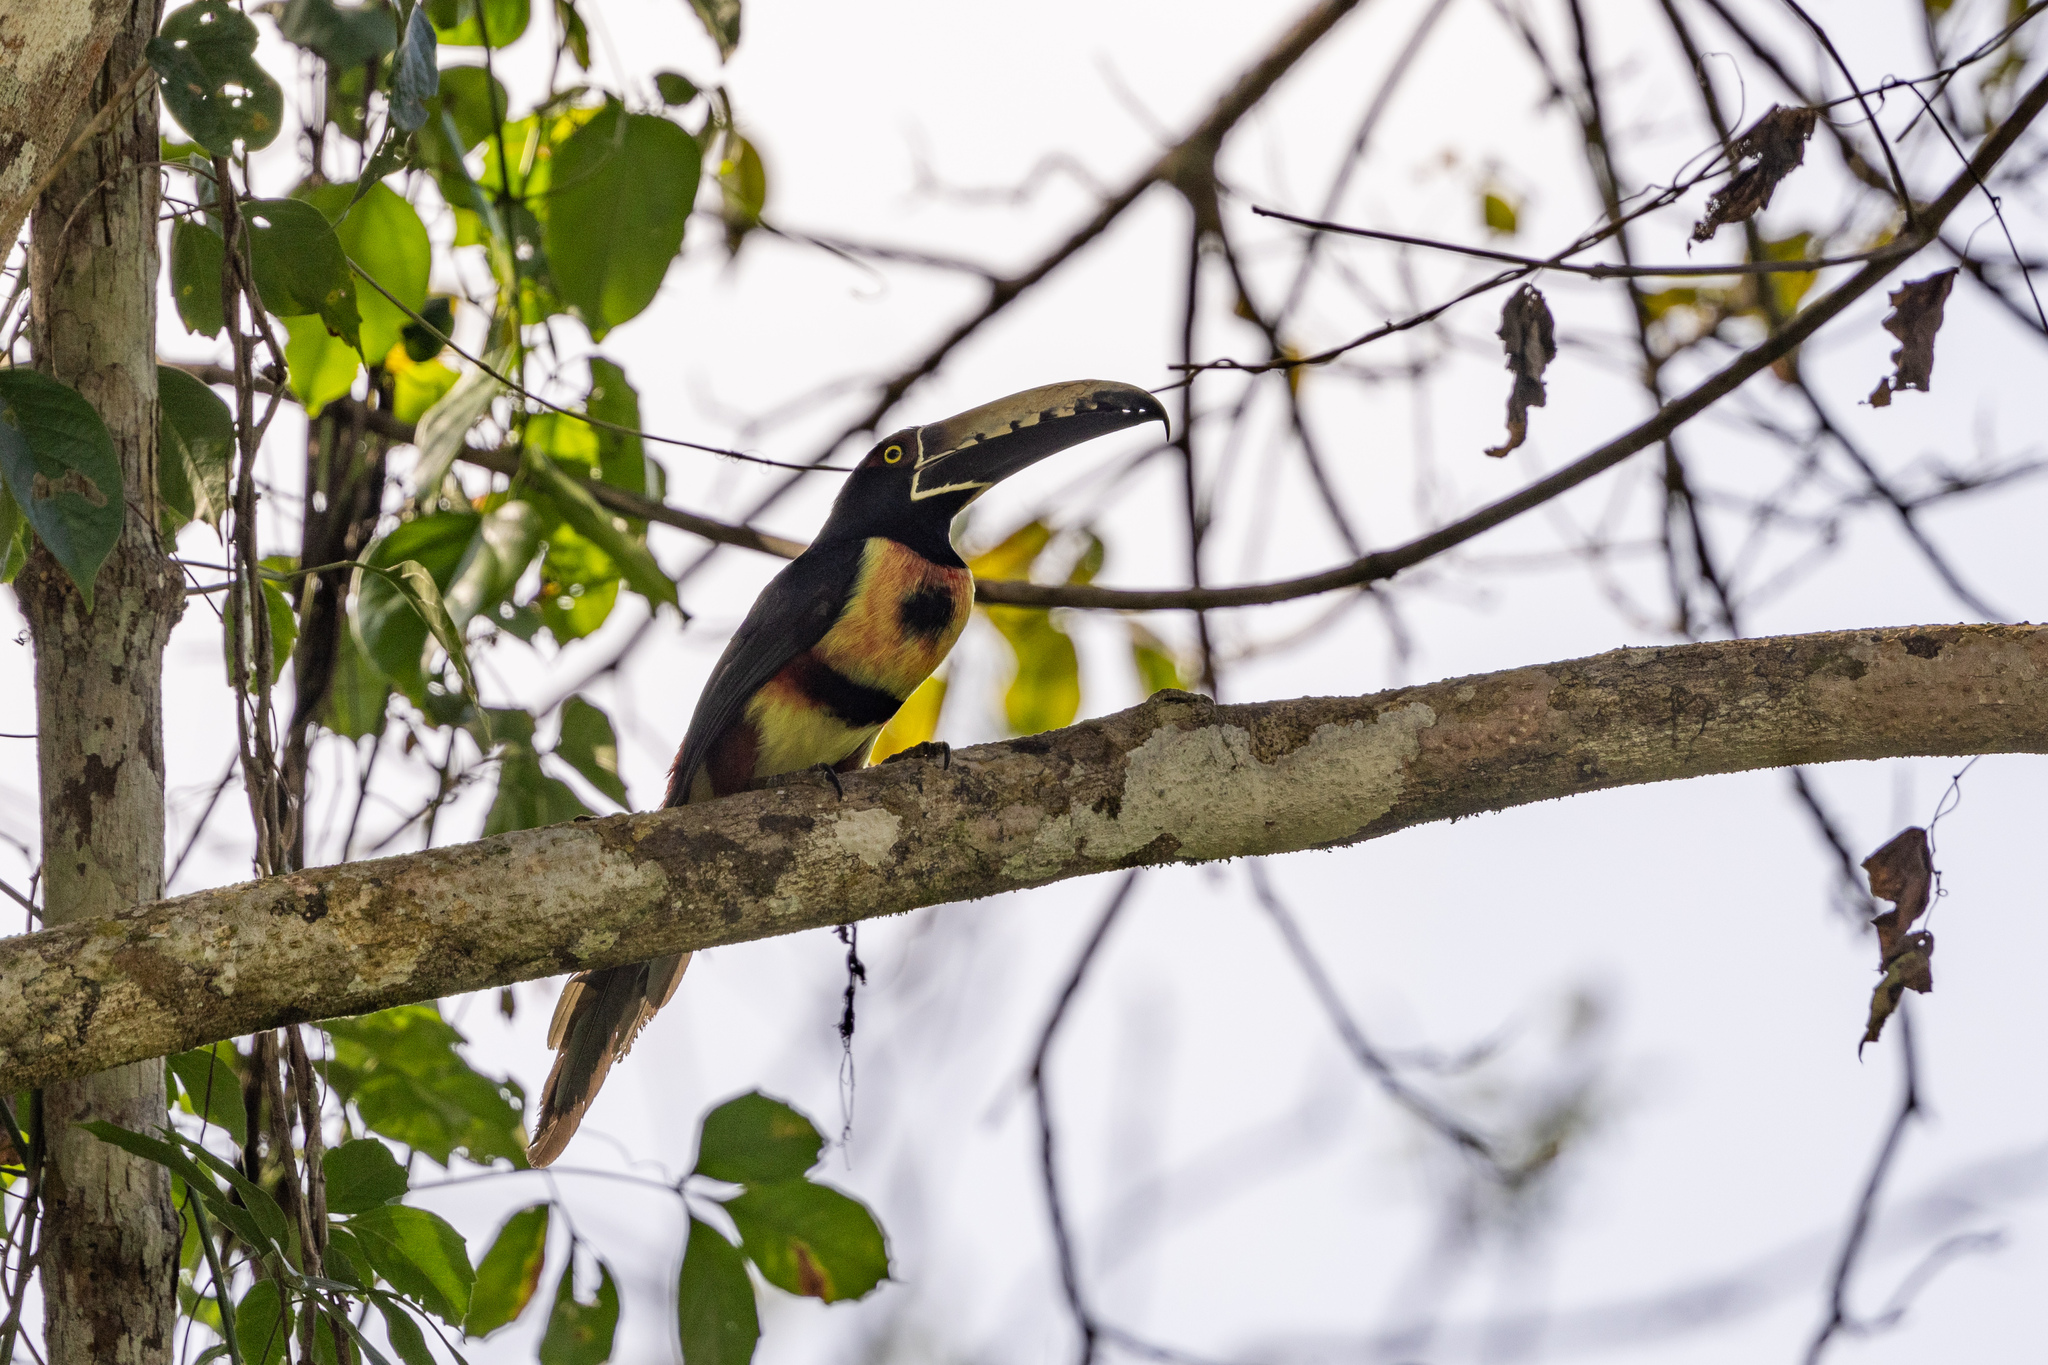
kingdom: Animalia
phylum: Chordata
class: Aves
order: Piciformes
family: Ramphastidae
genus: Pteroglossus
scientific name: Pteroglossus torquatus
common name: Collared aracari
